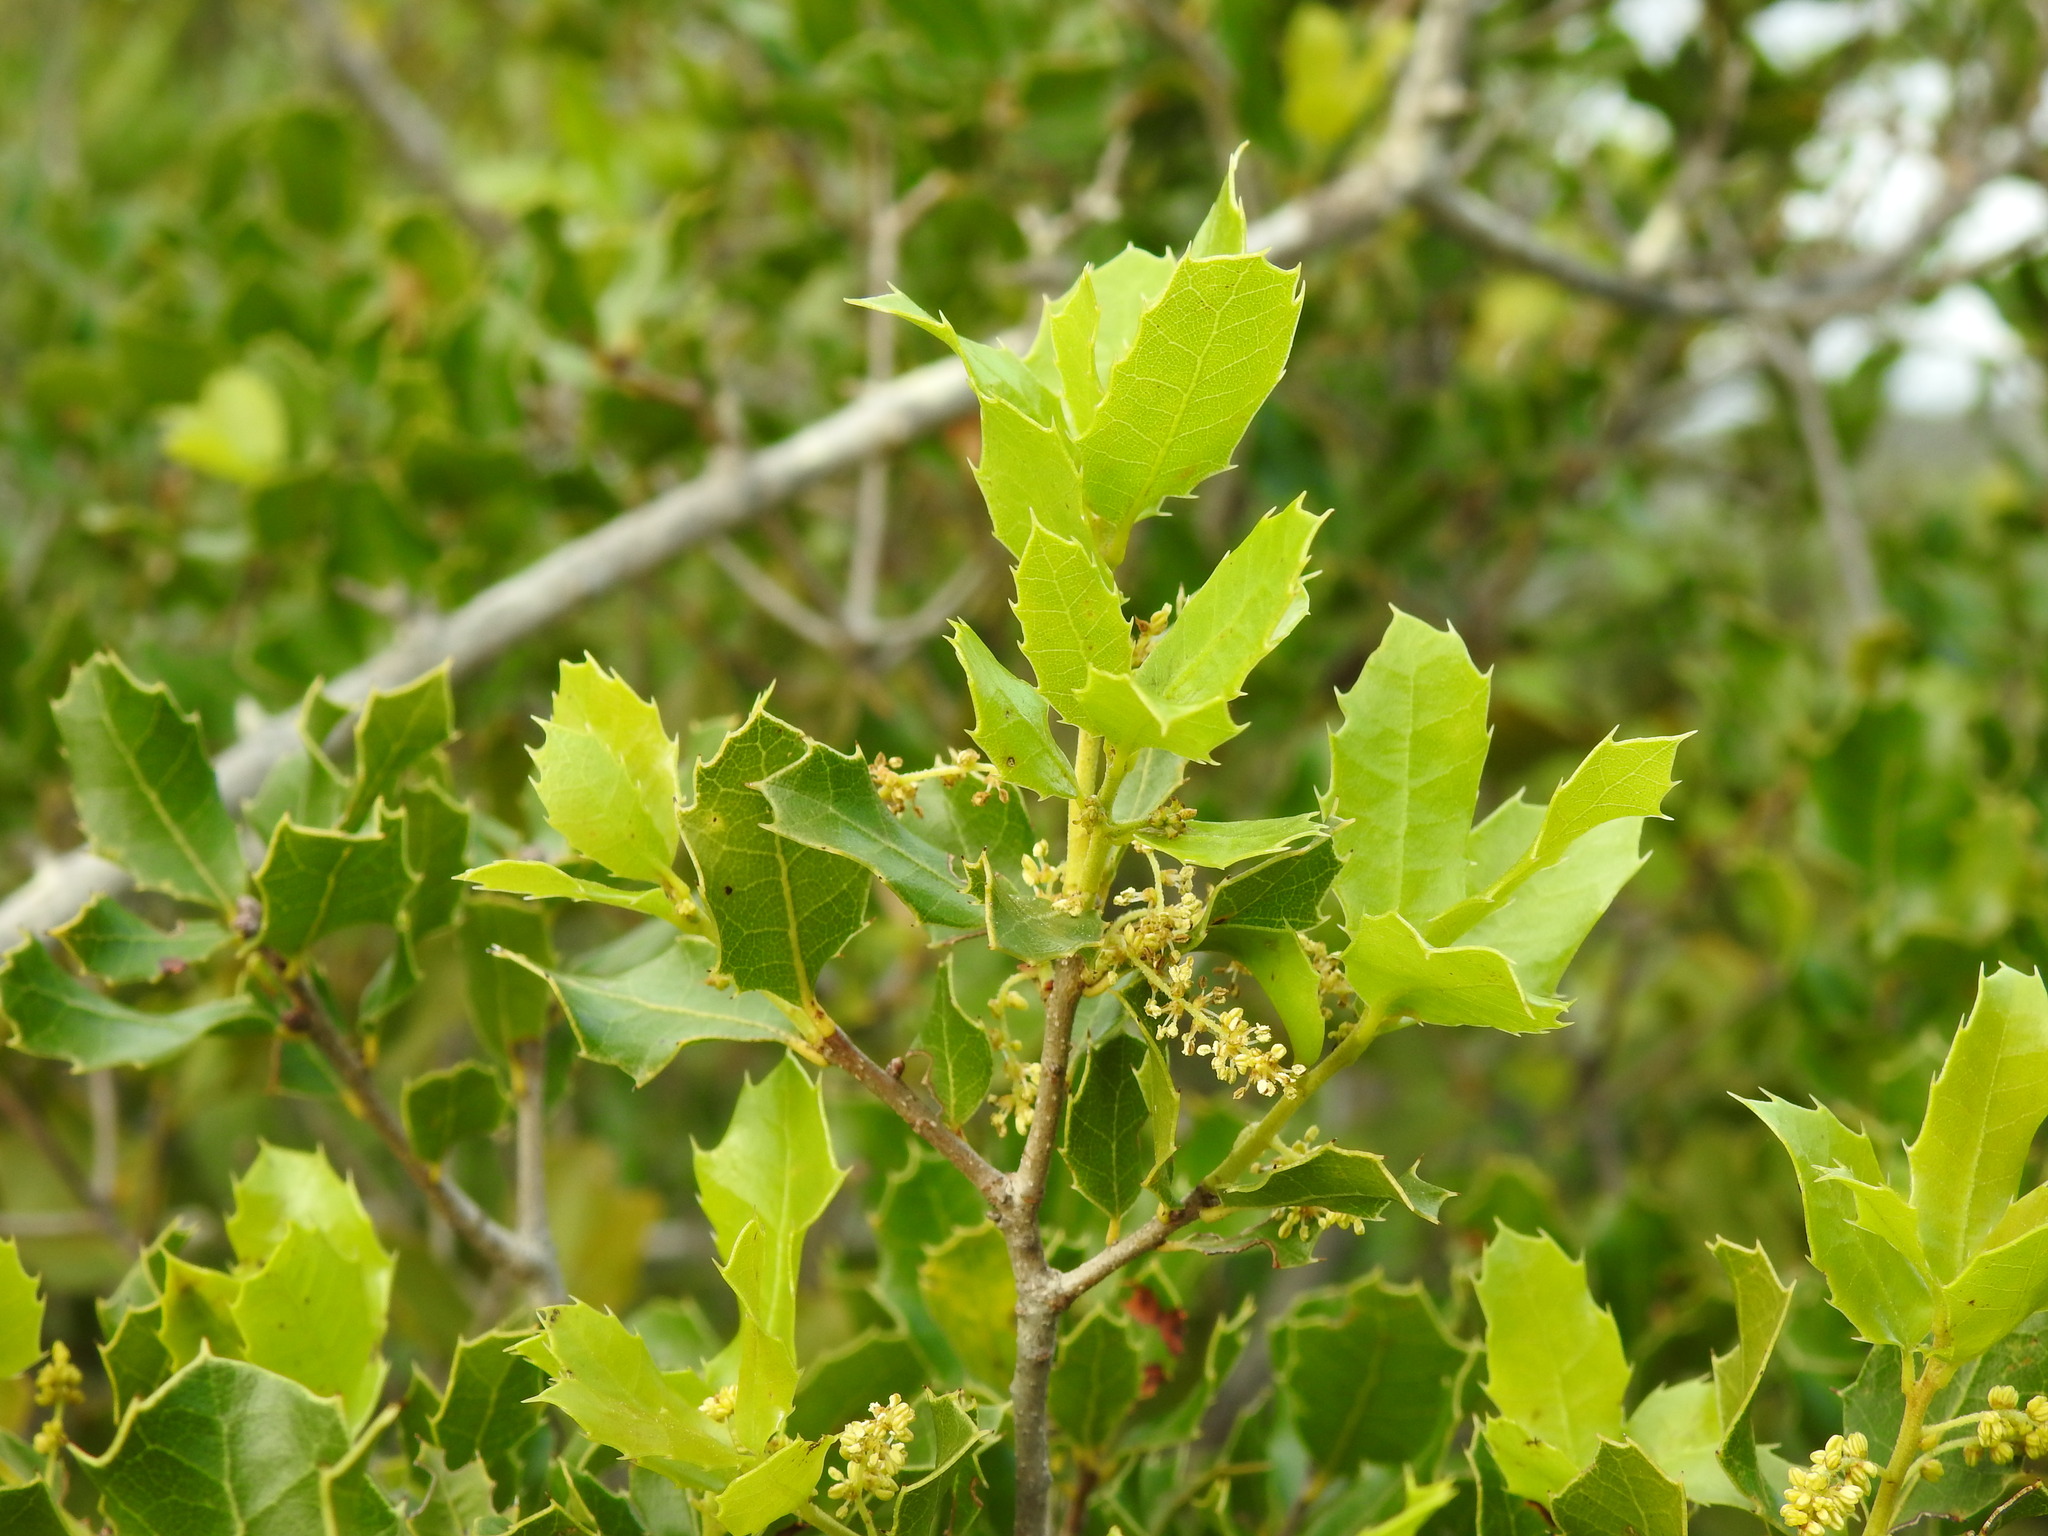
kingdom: Plantae
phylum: Tracheophyta
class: Magnoliopsida
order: Fagales
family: Fagaceae
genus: Quercus
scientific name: Quercus coccifera
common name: Kermes oak
